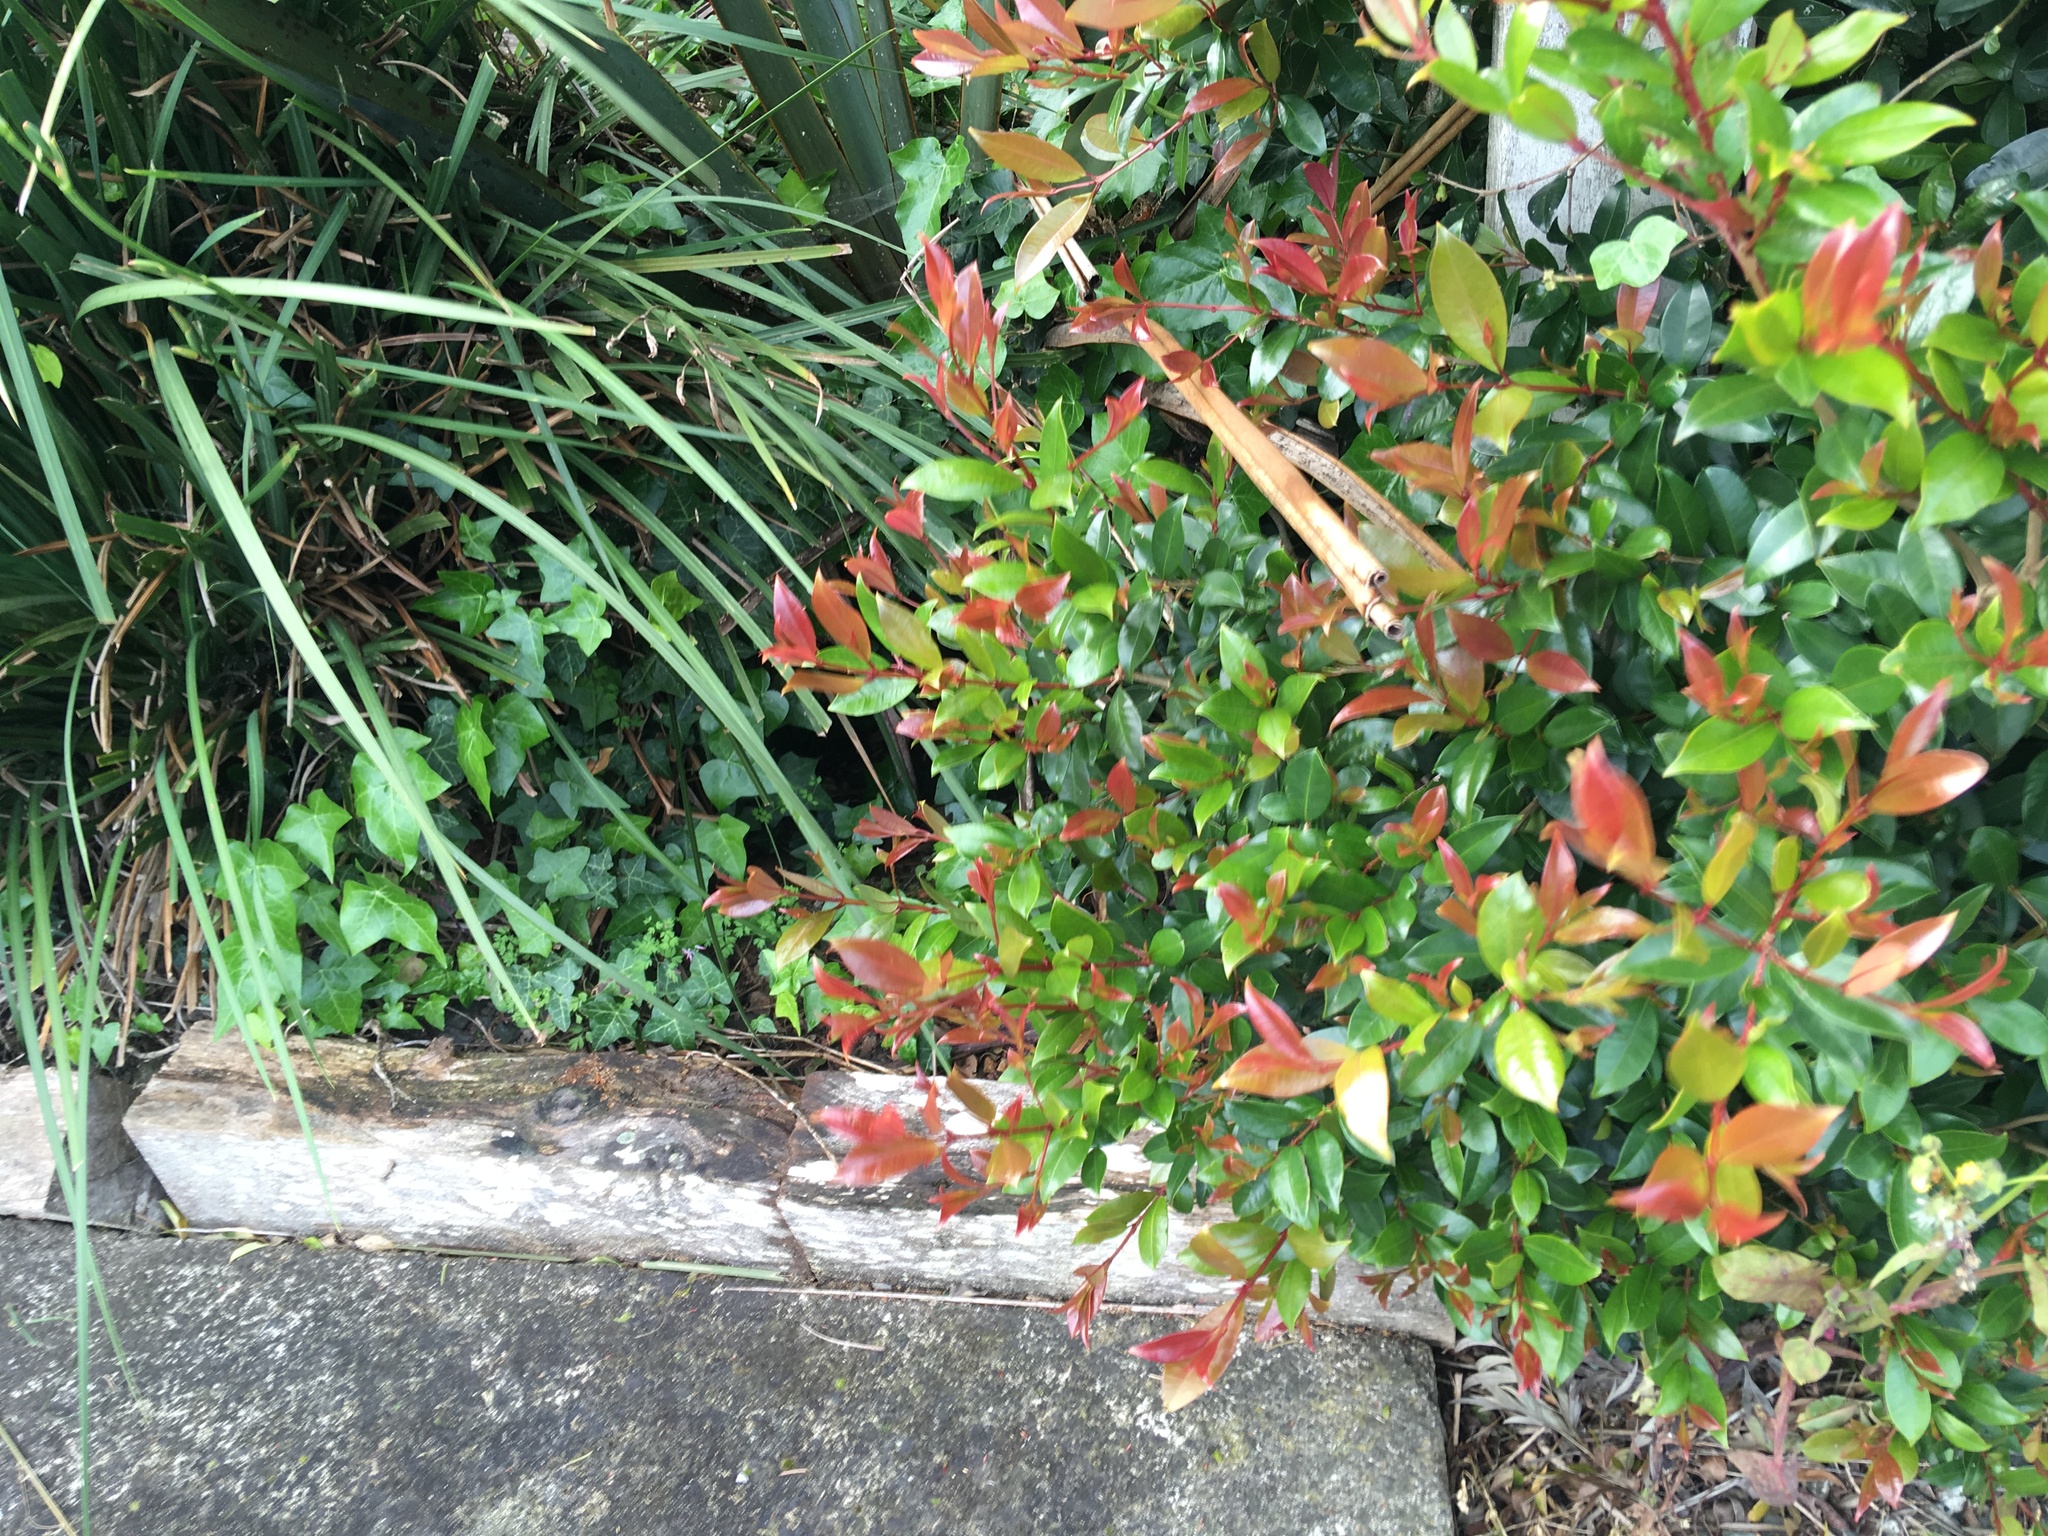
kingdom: Plantae
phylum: Tracheophyta
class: Magnoliopsida
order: Apiales
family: Araliaceae
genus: Hedera
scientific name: Hedera helix
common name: Ivy
